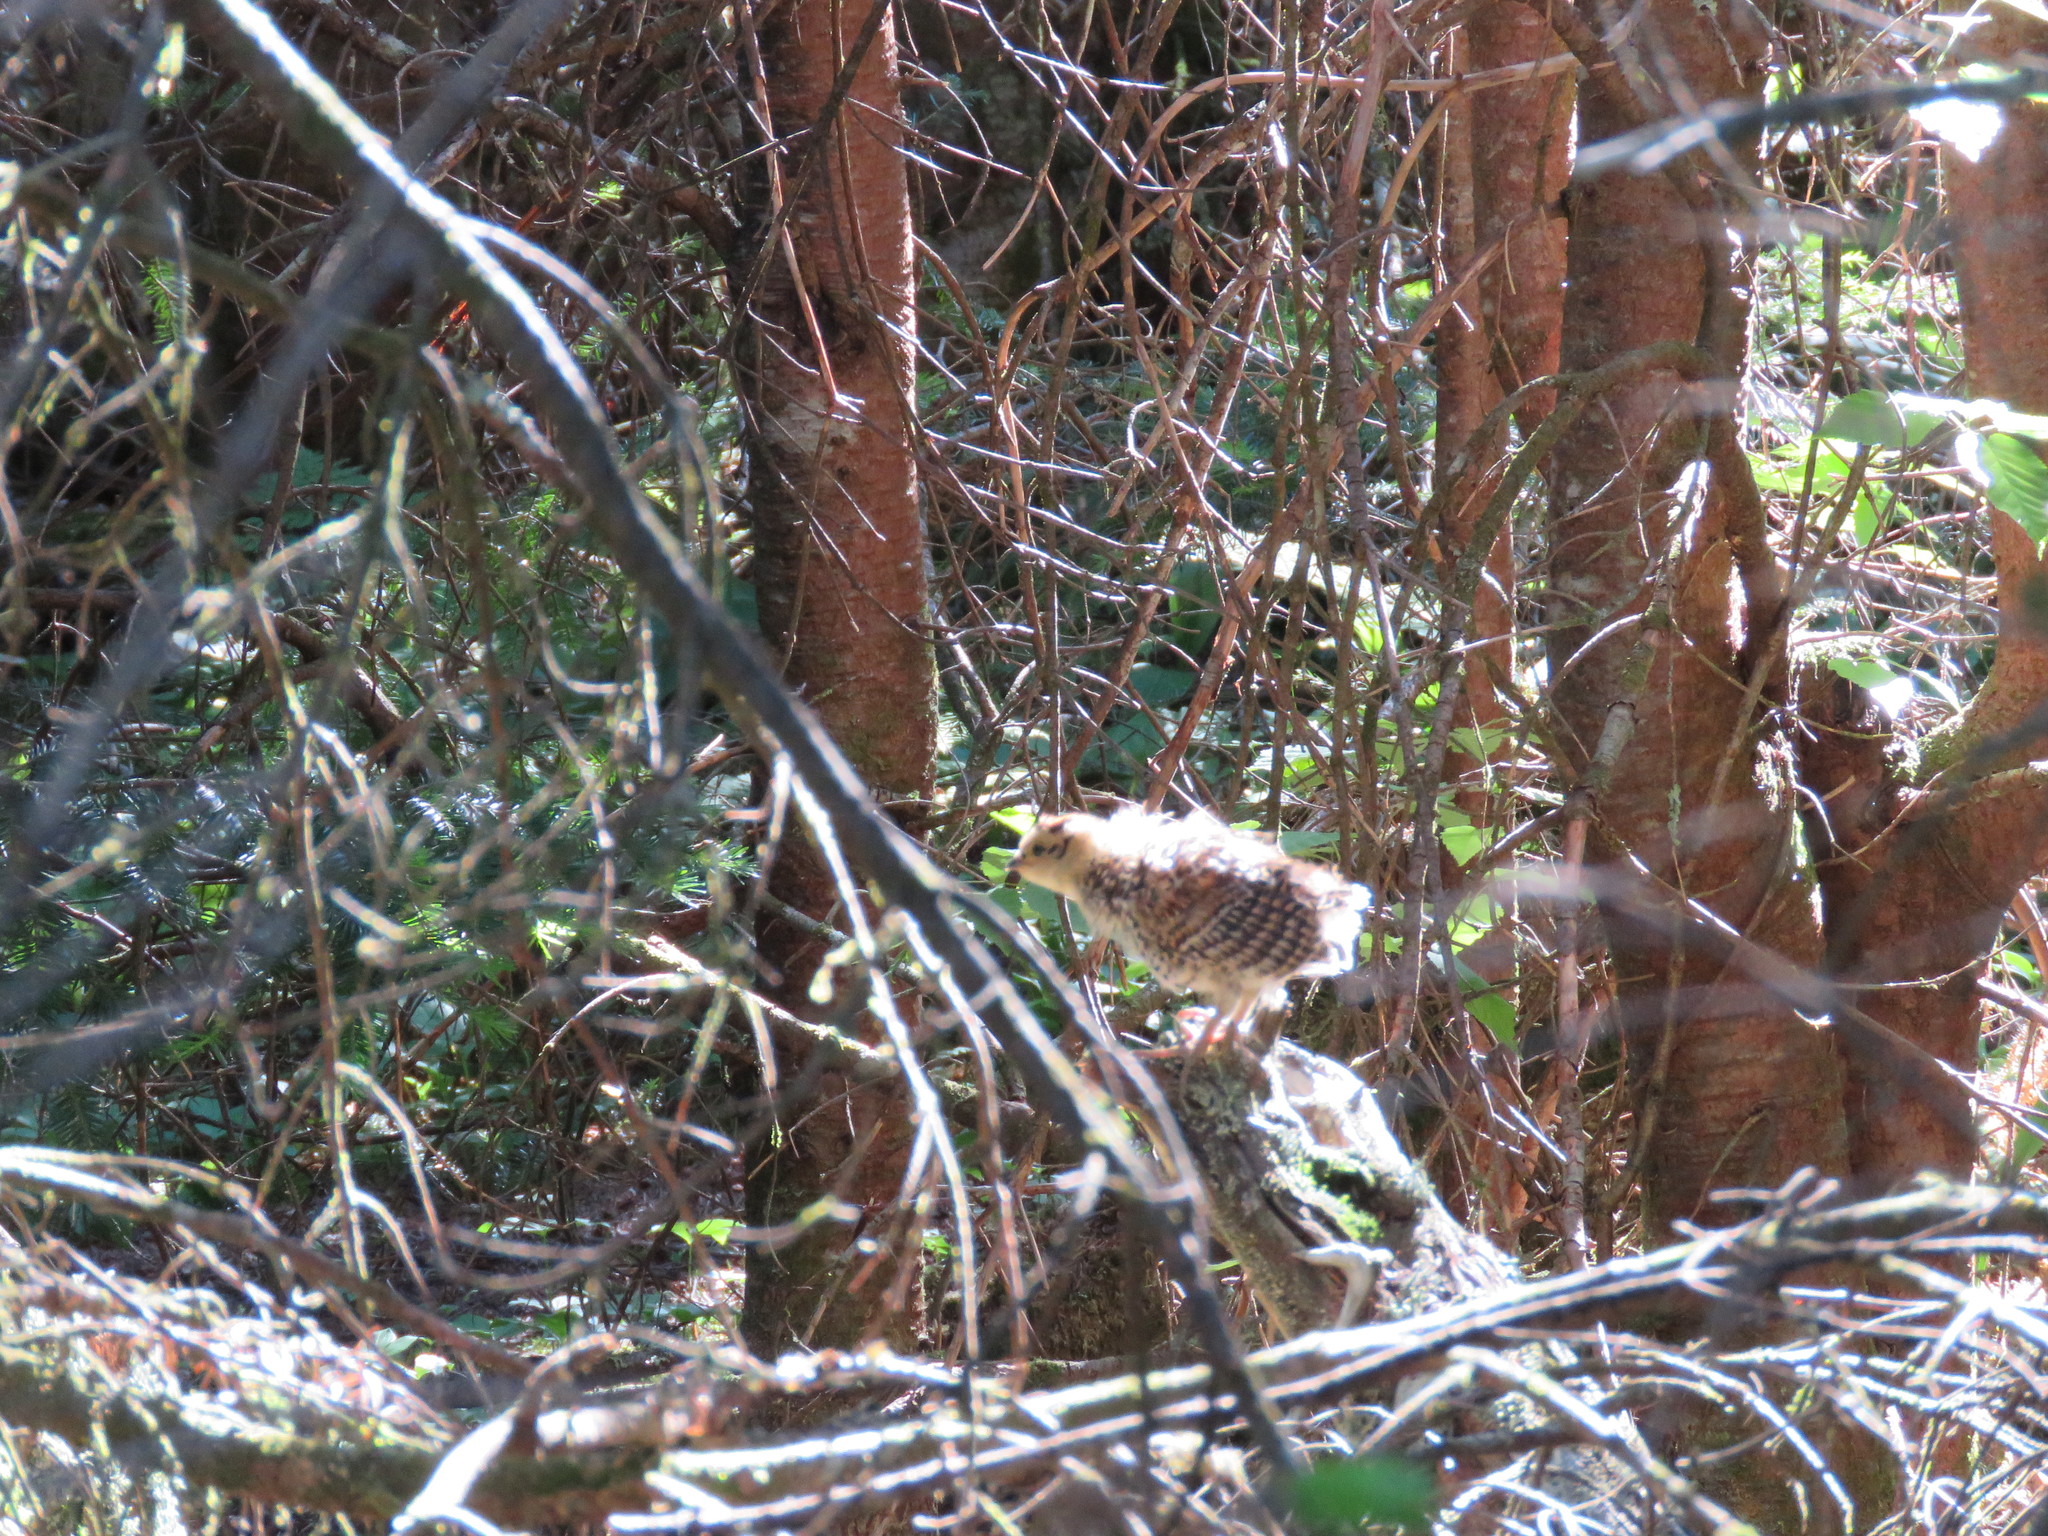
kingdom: Animalia
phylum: Chordata
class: Aves
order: Galliformes
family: Phasianidae
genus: Canachites
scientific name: Canachites canadensis
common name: Spruce grouse
